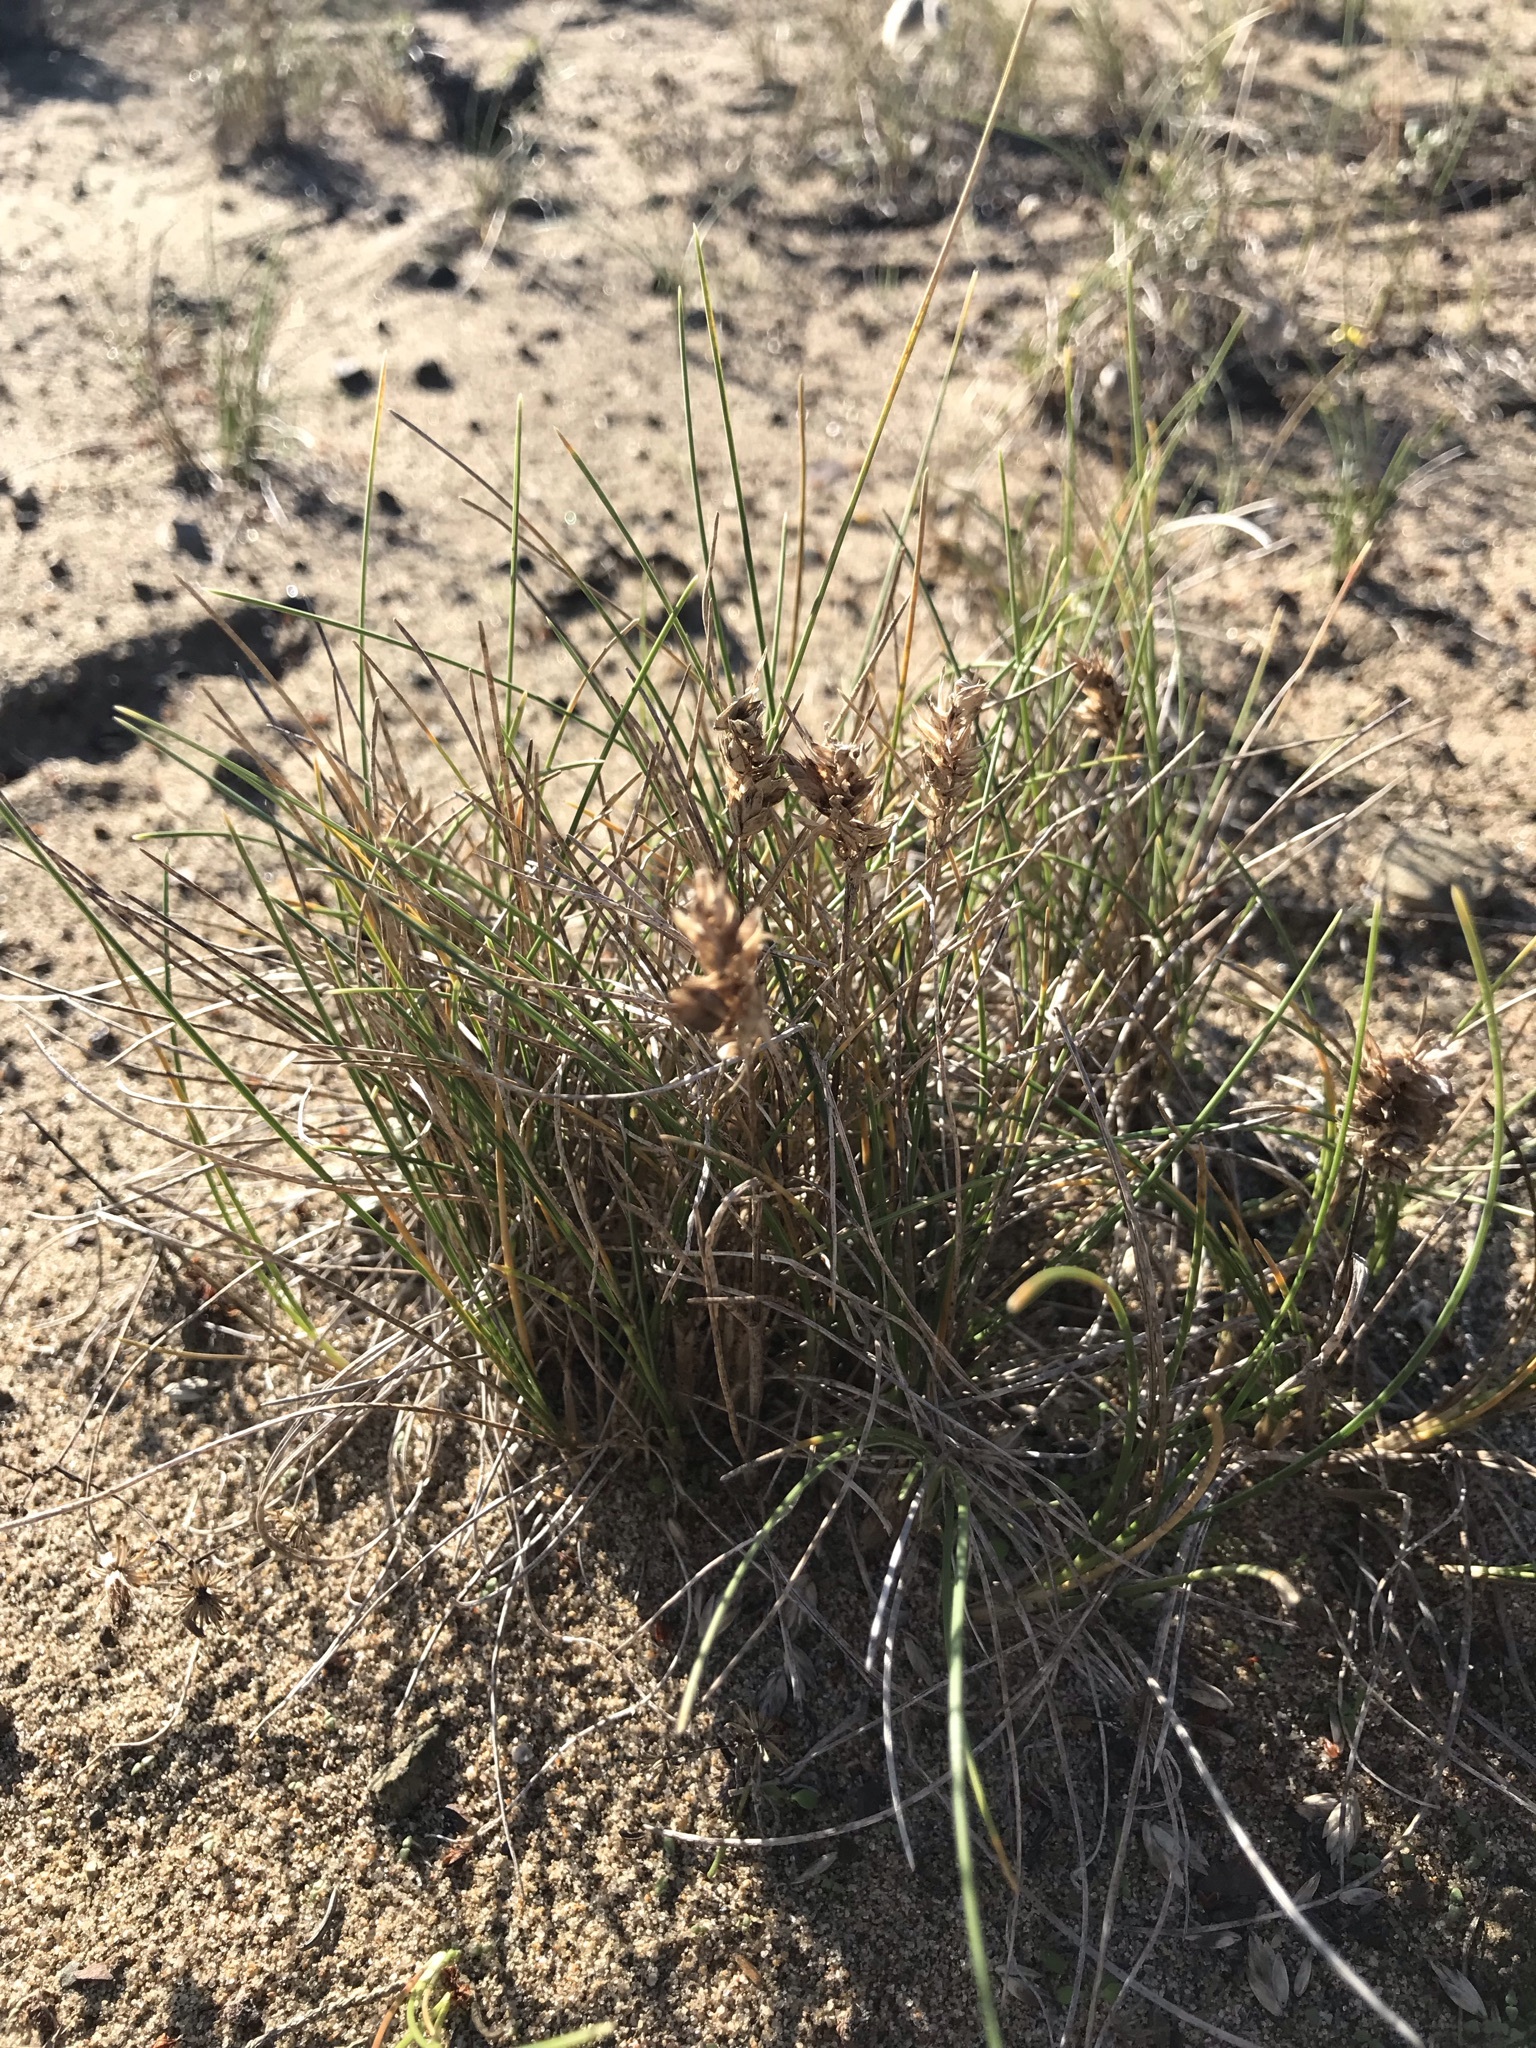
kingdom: Plantae
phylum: Tracheophyta
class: Liliopsida
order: Poales
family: Poaceae
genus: Poa
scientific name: Poa douglasii
